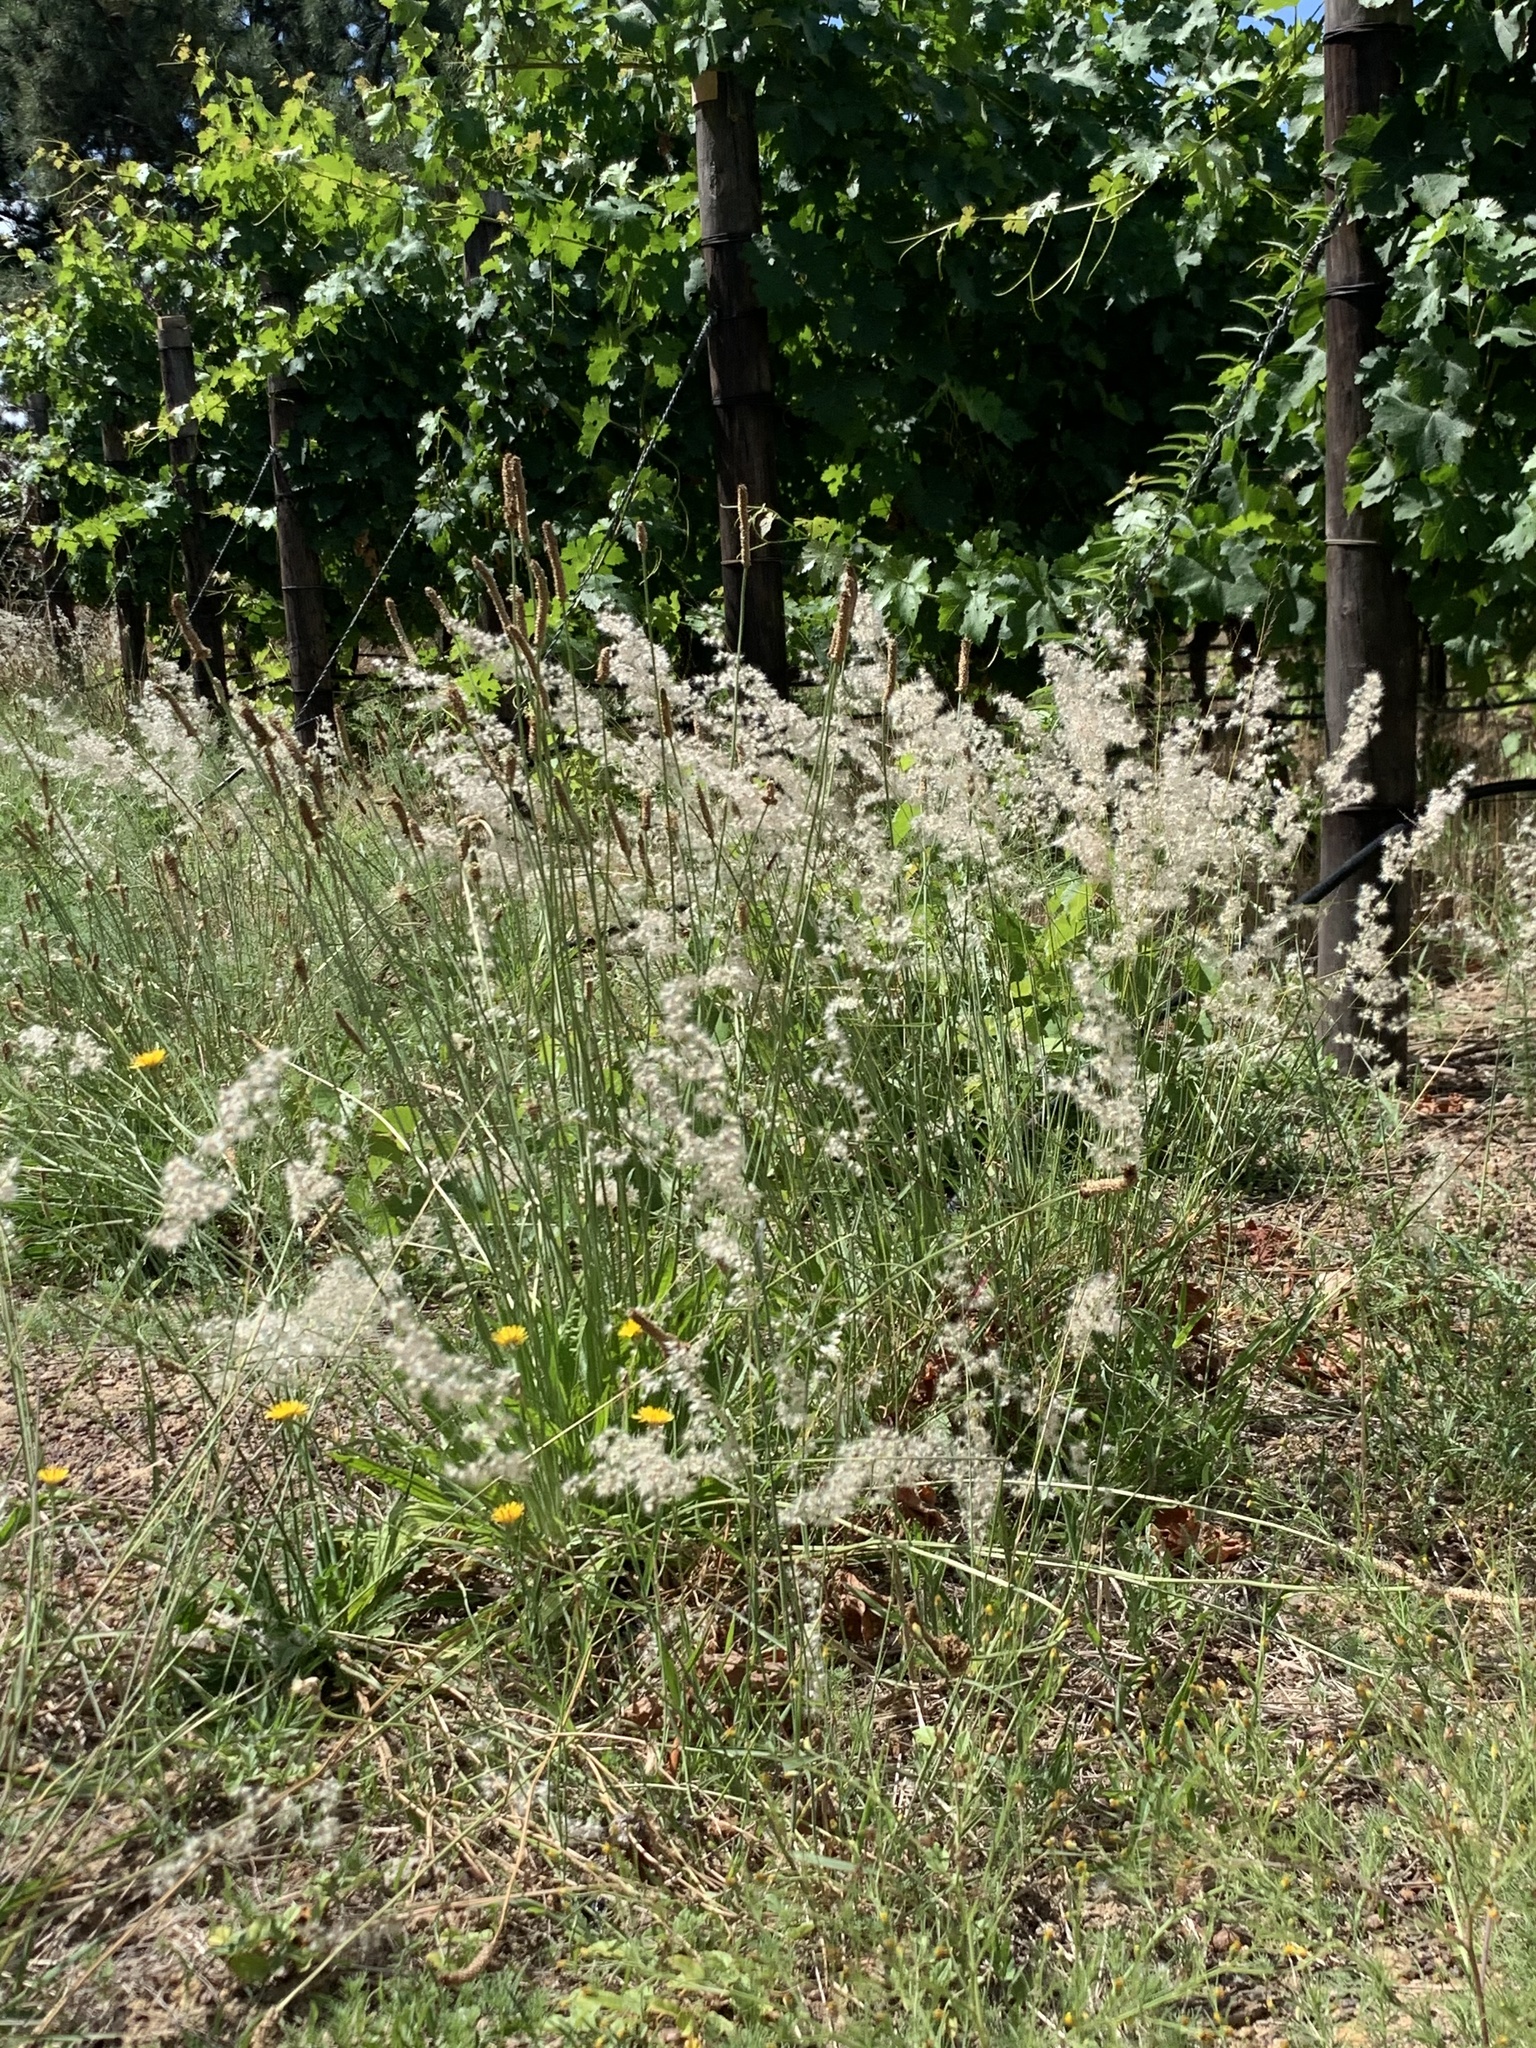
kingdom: Plantae
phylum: Tracheophyta
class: Liliopsida
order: Poales
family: Poaceae
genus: Melinis
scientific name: Melinis repens
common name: Rose natal grass
